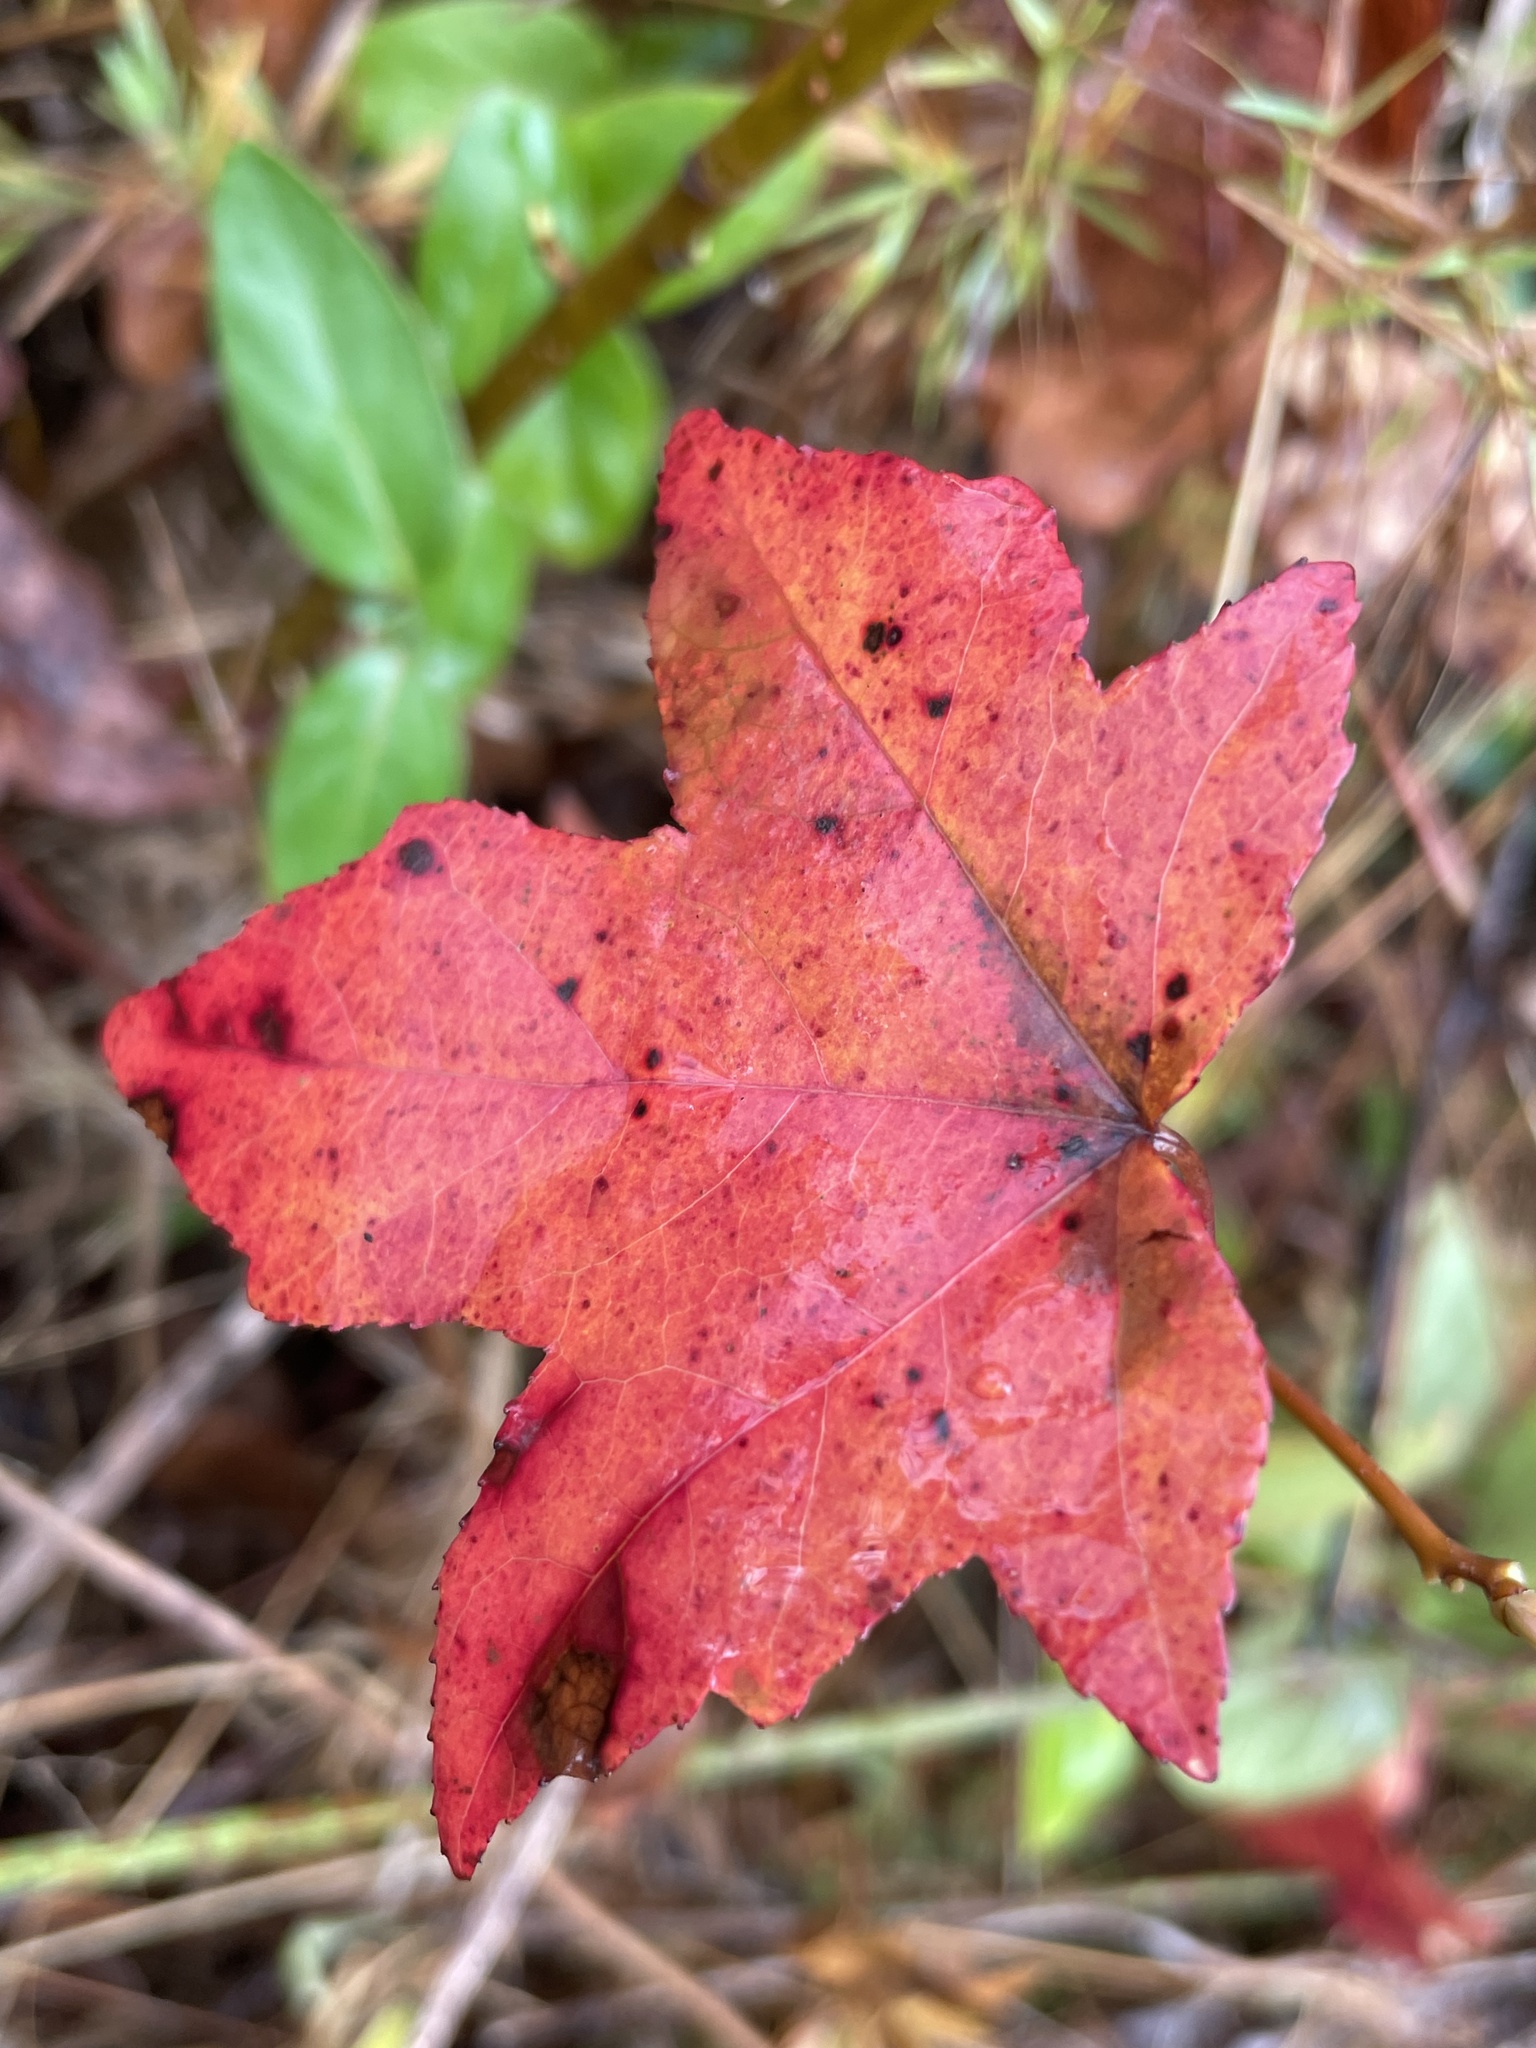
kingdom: Plantae
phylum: Tracheophyta
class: Magnoliopsida
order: Saxifragales
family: Altingiaceae
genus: Liquidambar
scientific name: Liquidambar styraciflua
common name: Sweet gum
